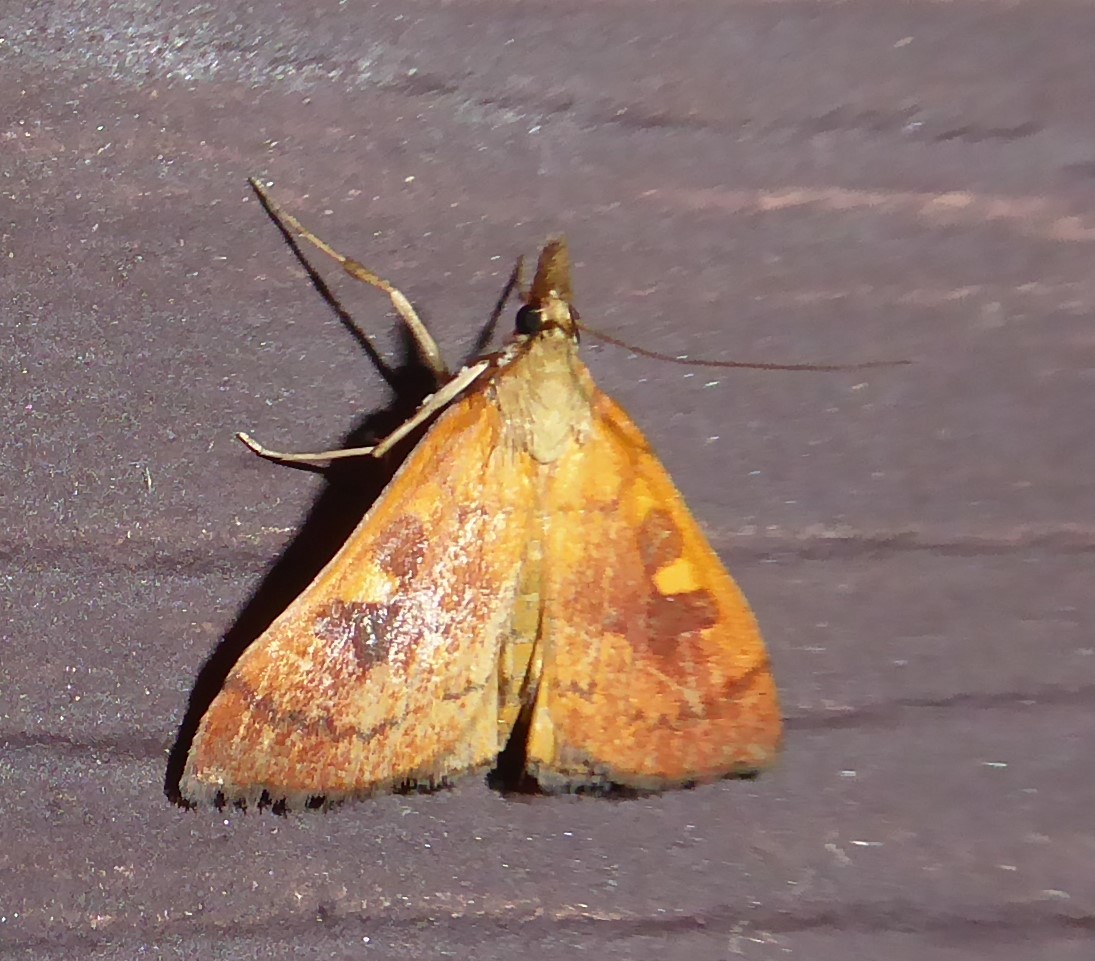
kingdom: Animalia
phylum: Arthropoda
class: Insecta
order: Lepidoptera
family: Crambidae
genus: Udea
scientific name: Udea Mnesictena flavidalis
